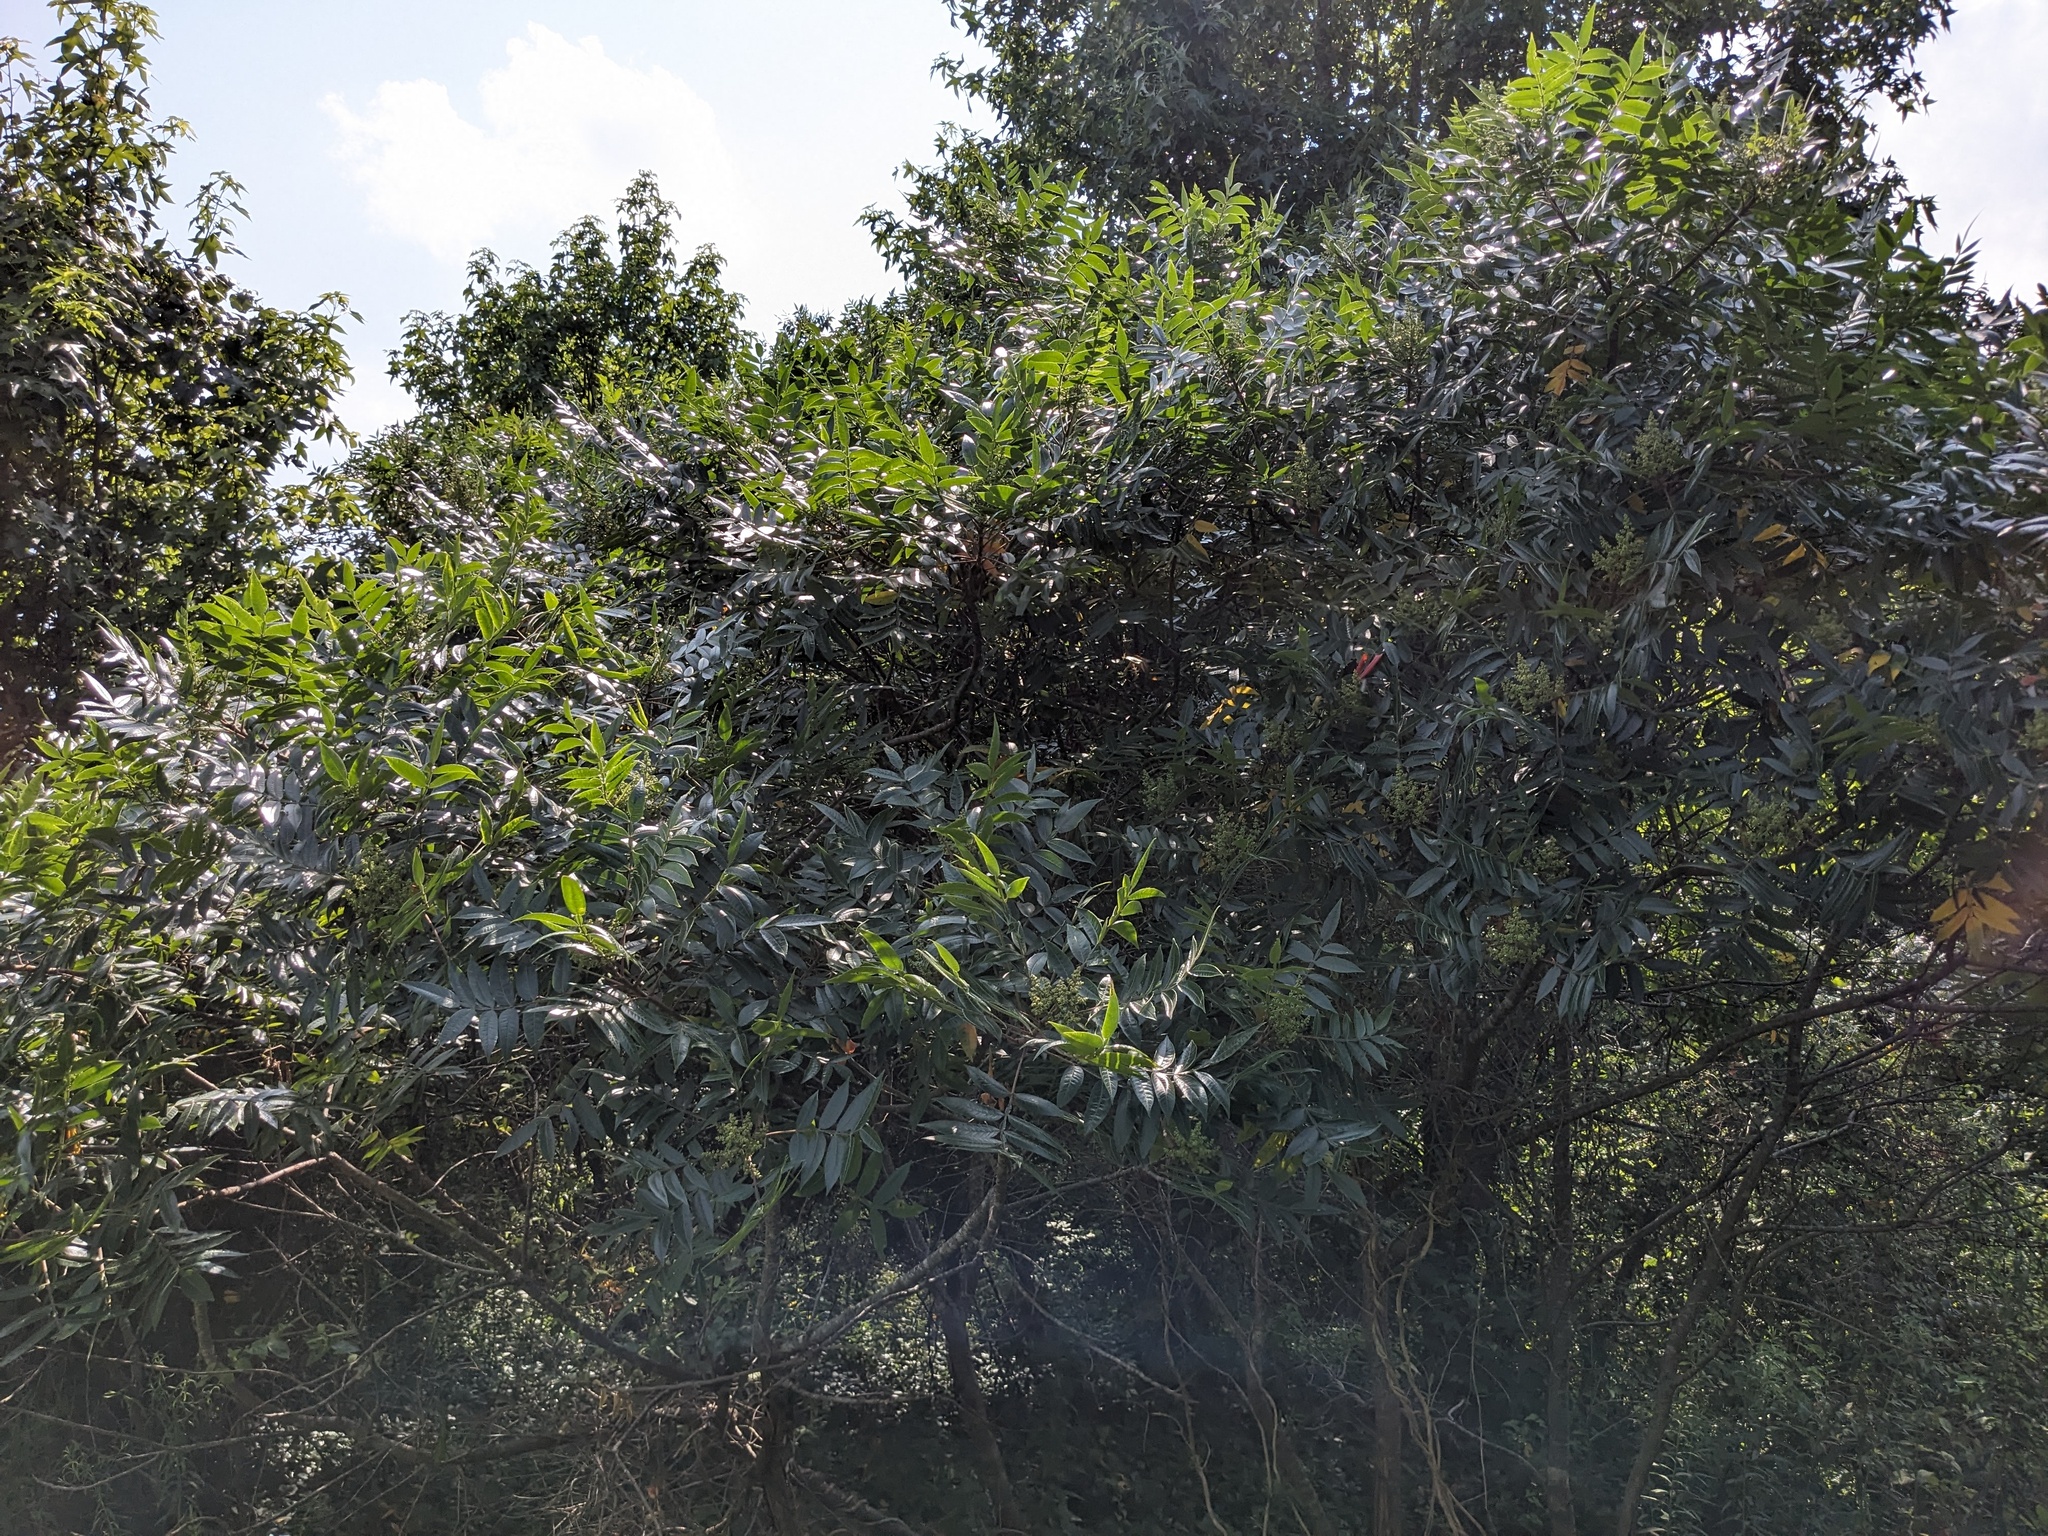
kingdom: Plantae
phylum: Tracheophyta
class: Magnoliopsida
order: Sapindales
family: Anacardiaceae
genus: Rhus
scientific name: Rhus copallina
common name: Shining sumac
